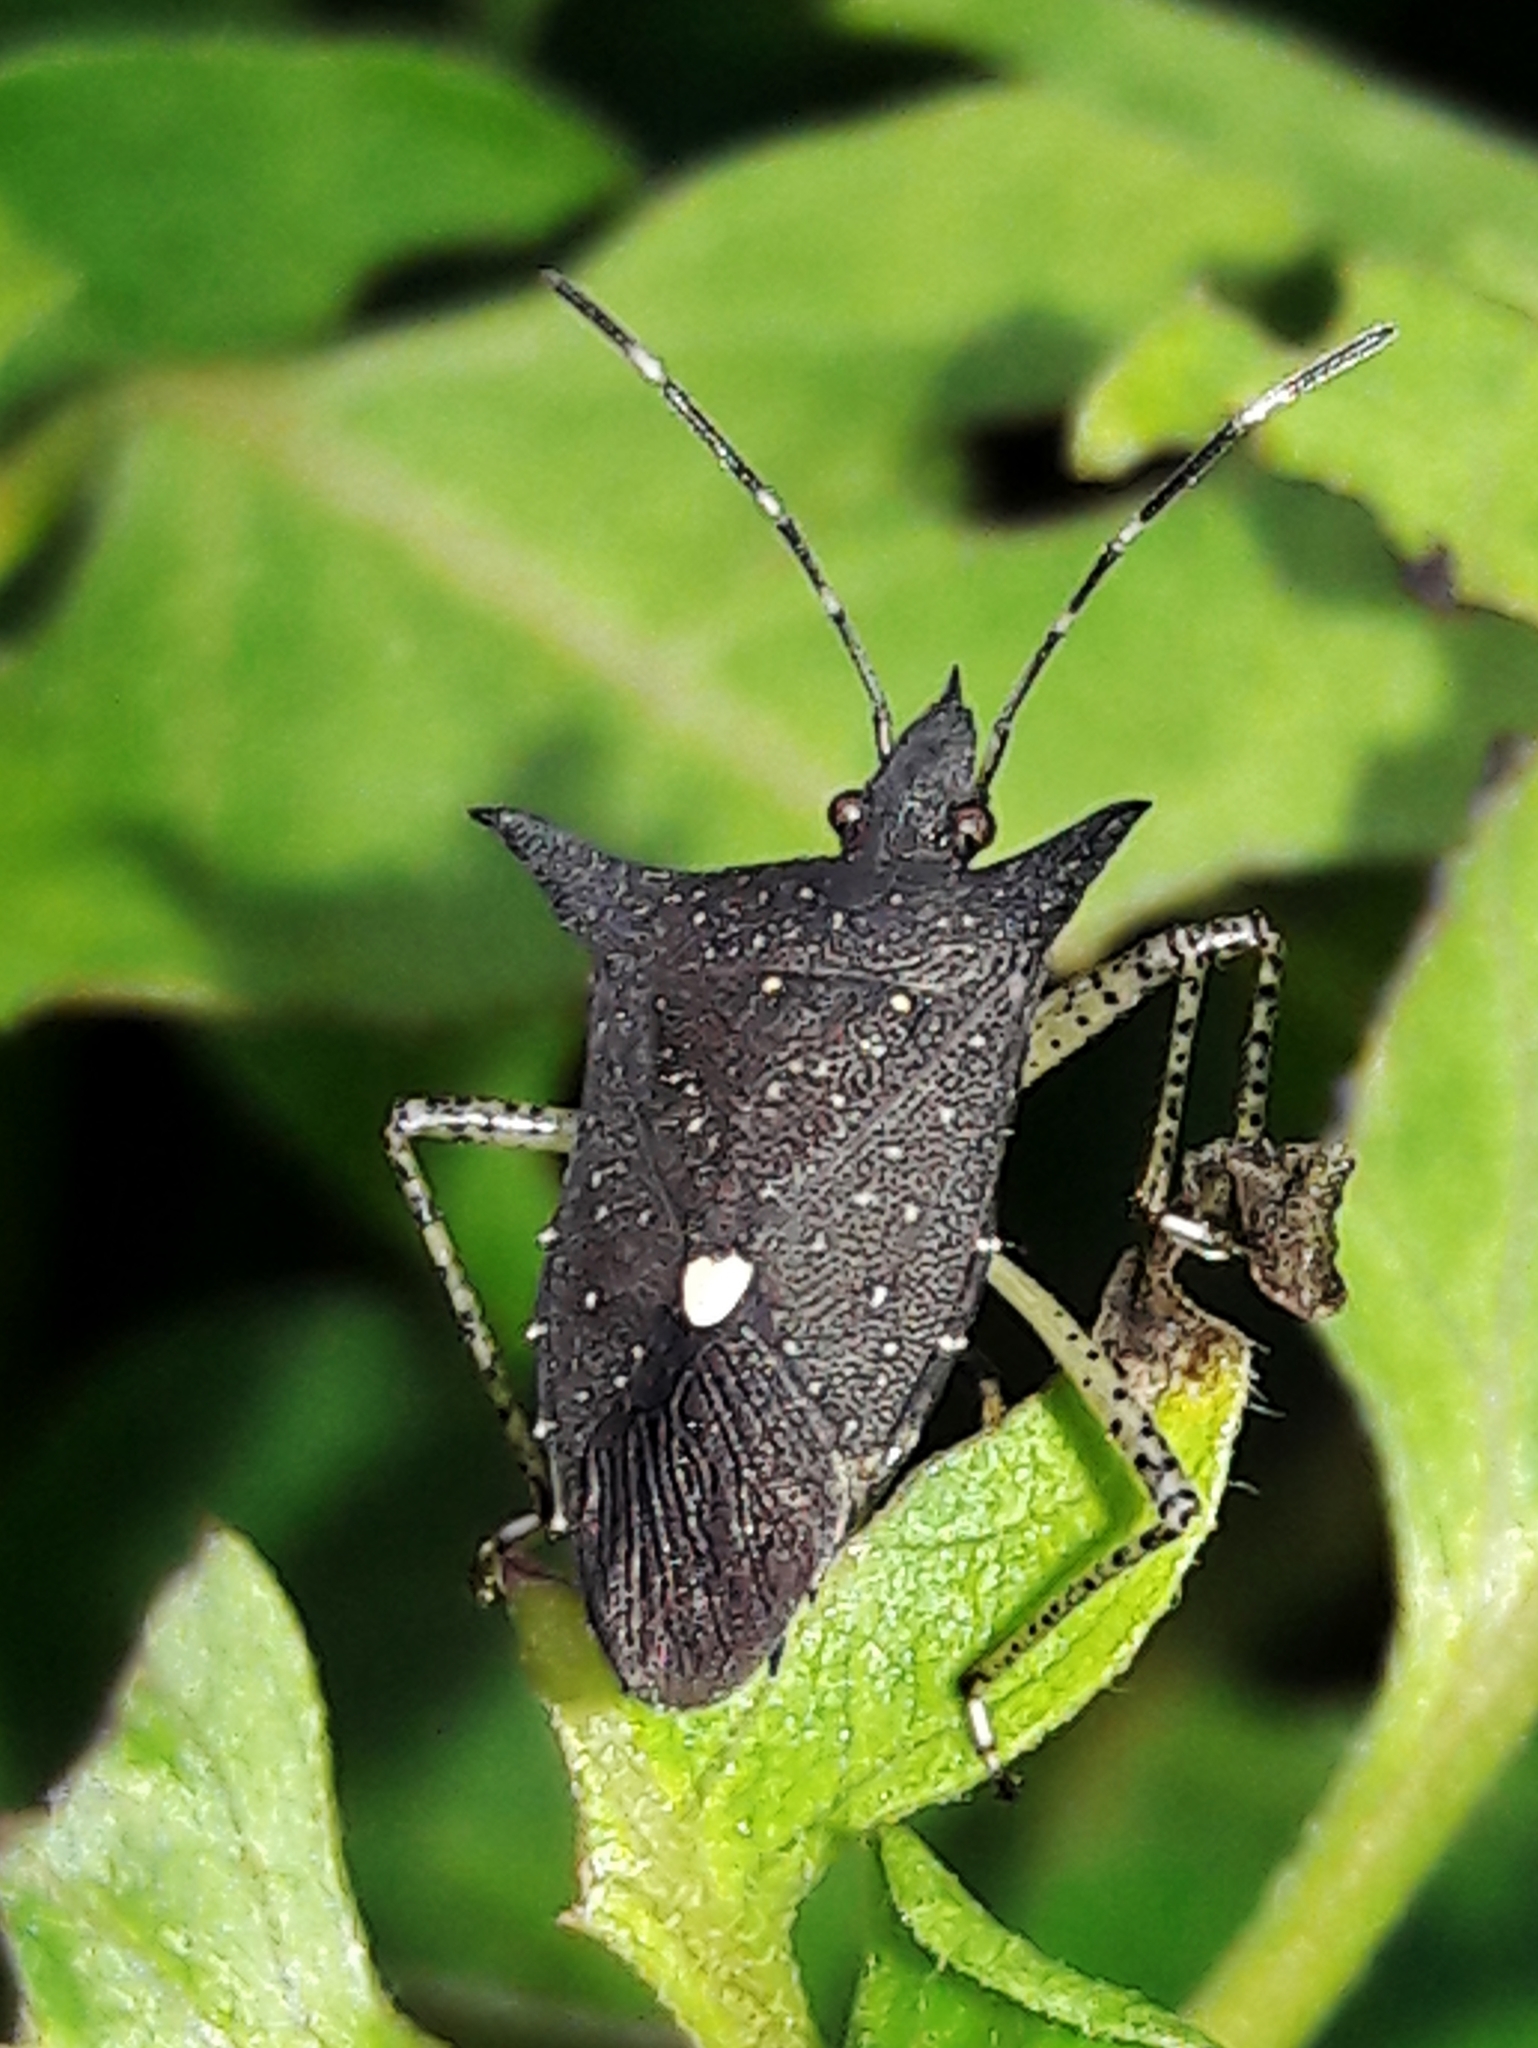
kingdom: Animalia
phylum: Arthropoda
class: Insecta
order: Hemiptera
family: Pentatomidae
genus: Proxys
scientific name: Proxys albopunctulatus
